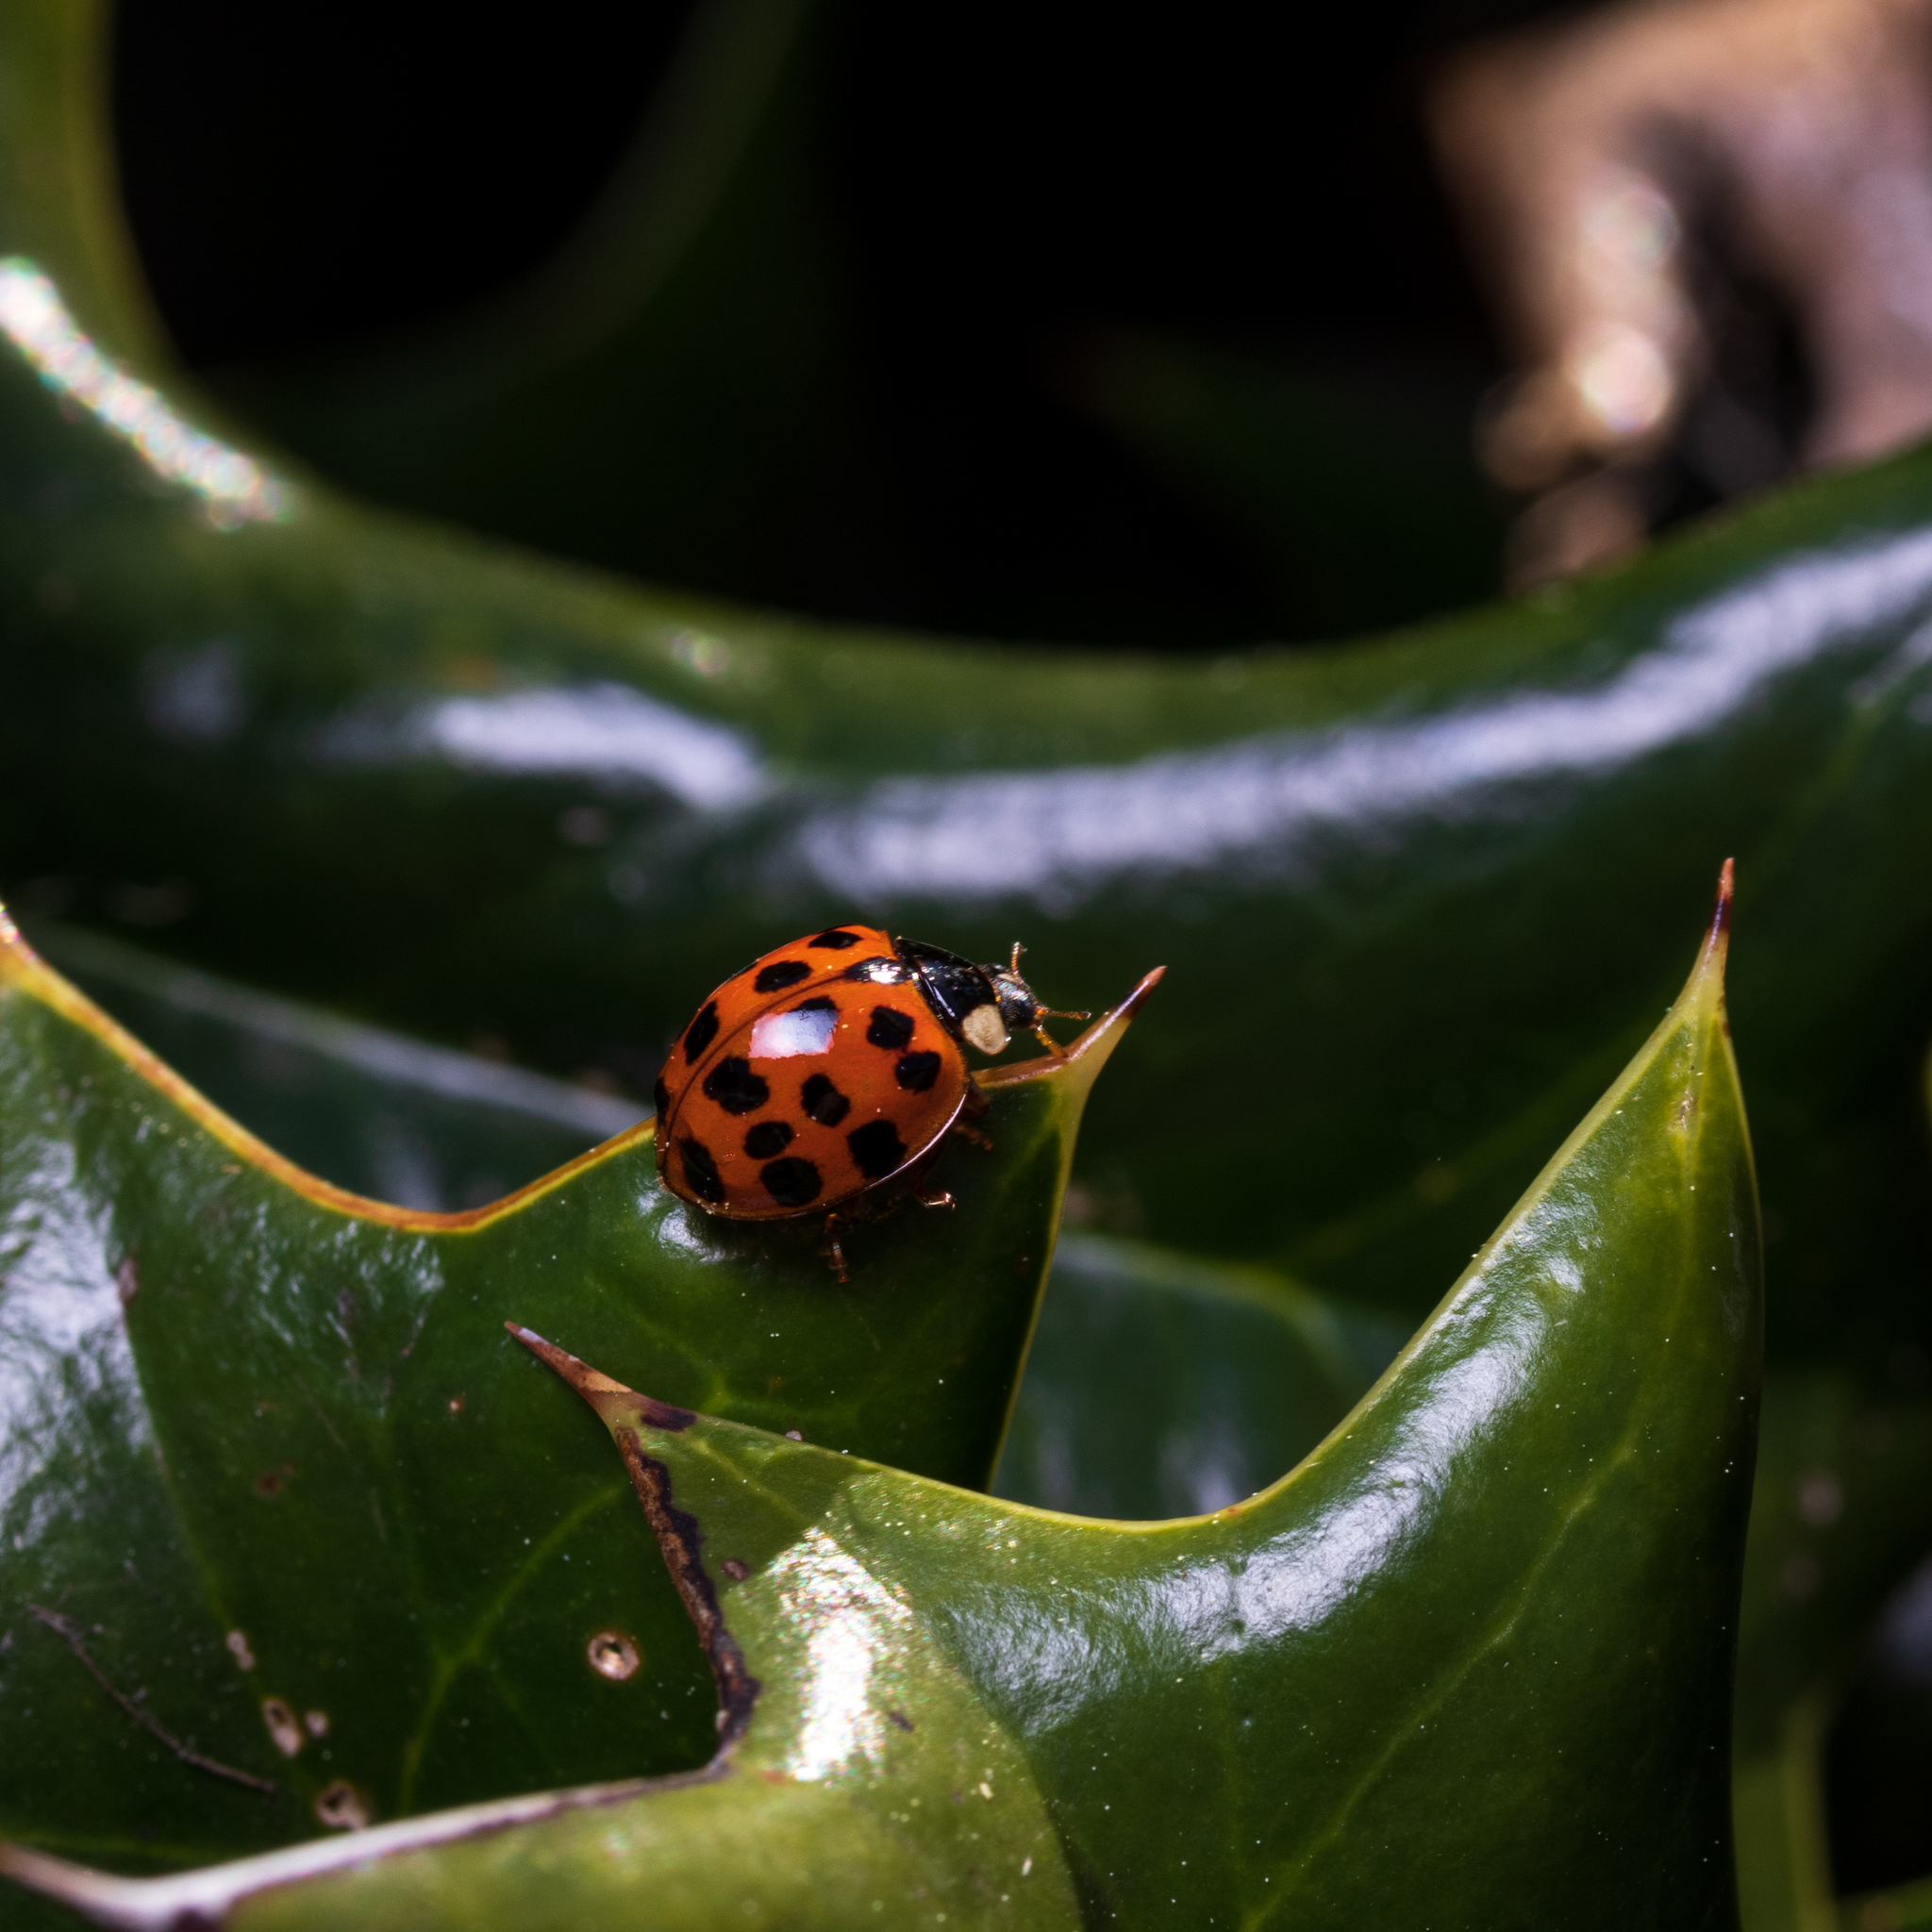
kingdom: Animalia
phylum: Arthropoda
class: Insecta
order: Coleoptera
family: Coccinellidae
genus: Harmonia
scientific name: Harmonia axyridis
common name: Harlequin ladybird
